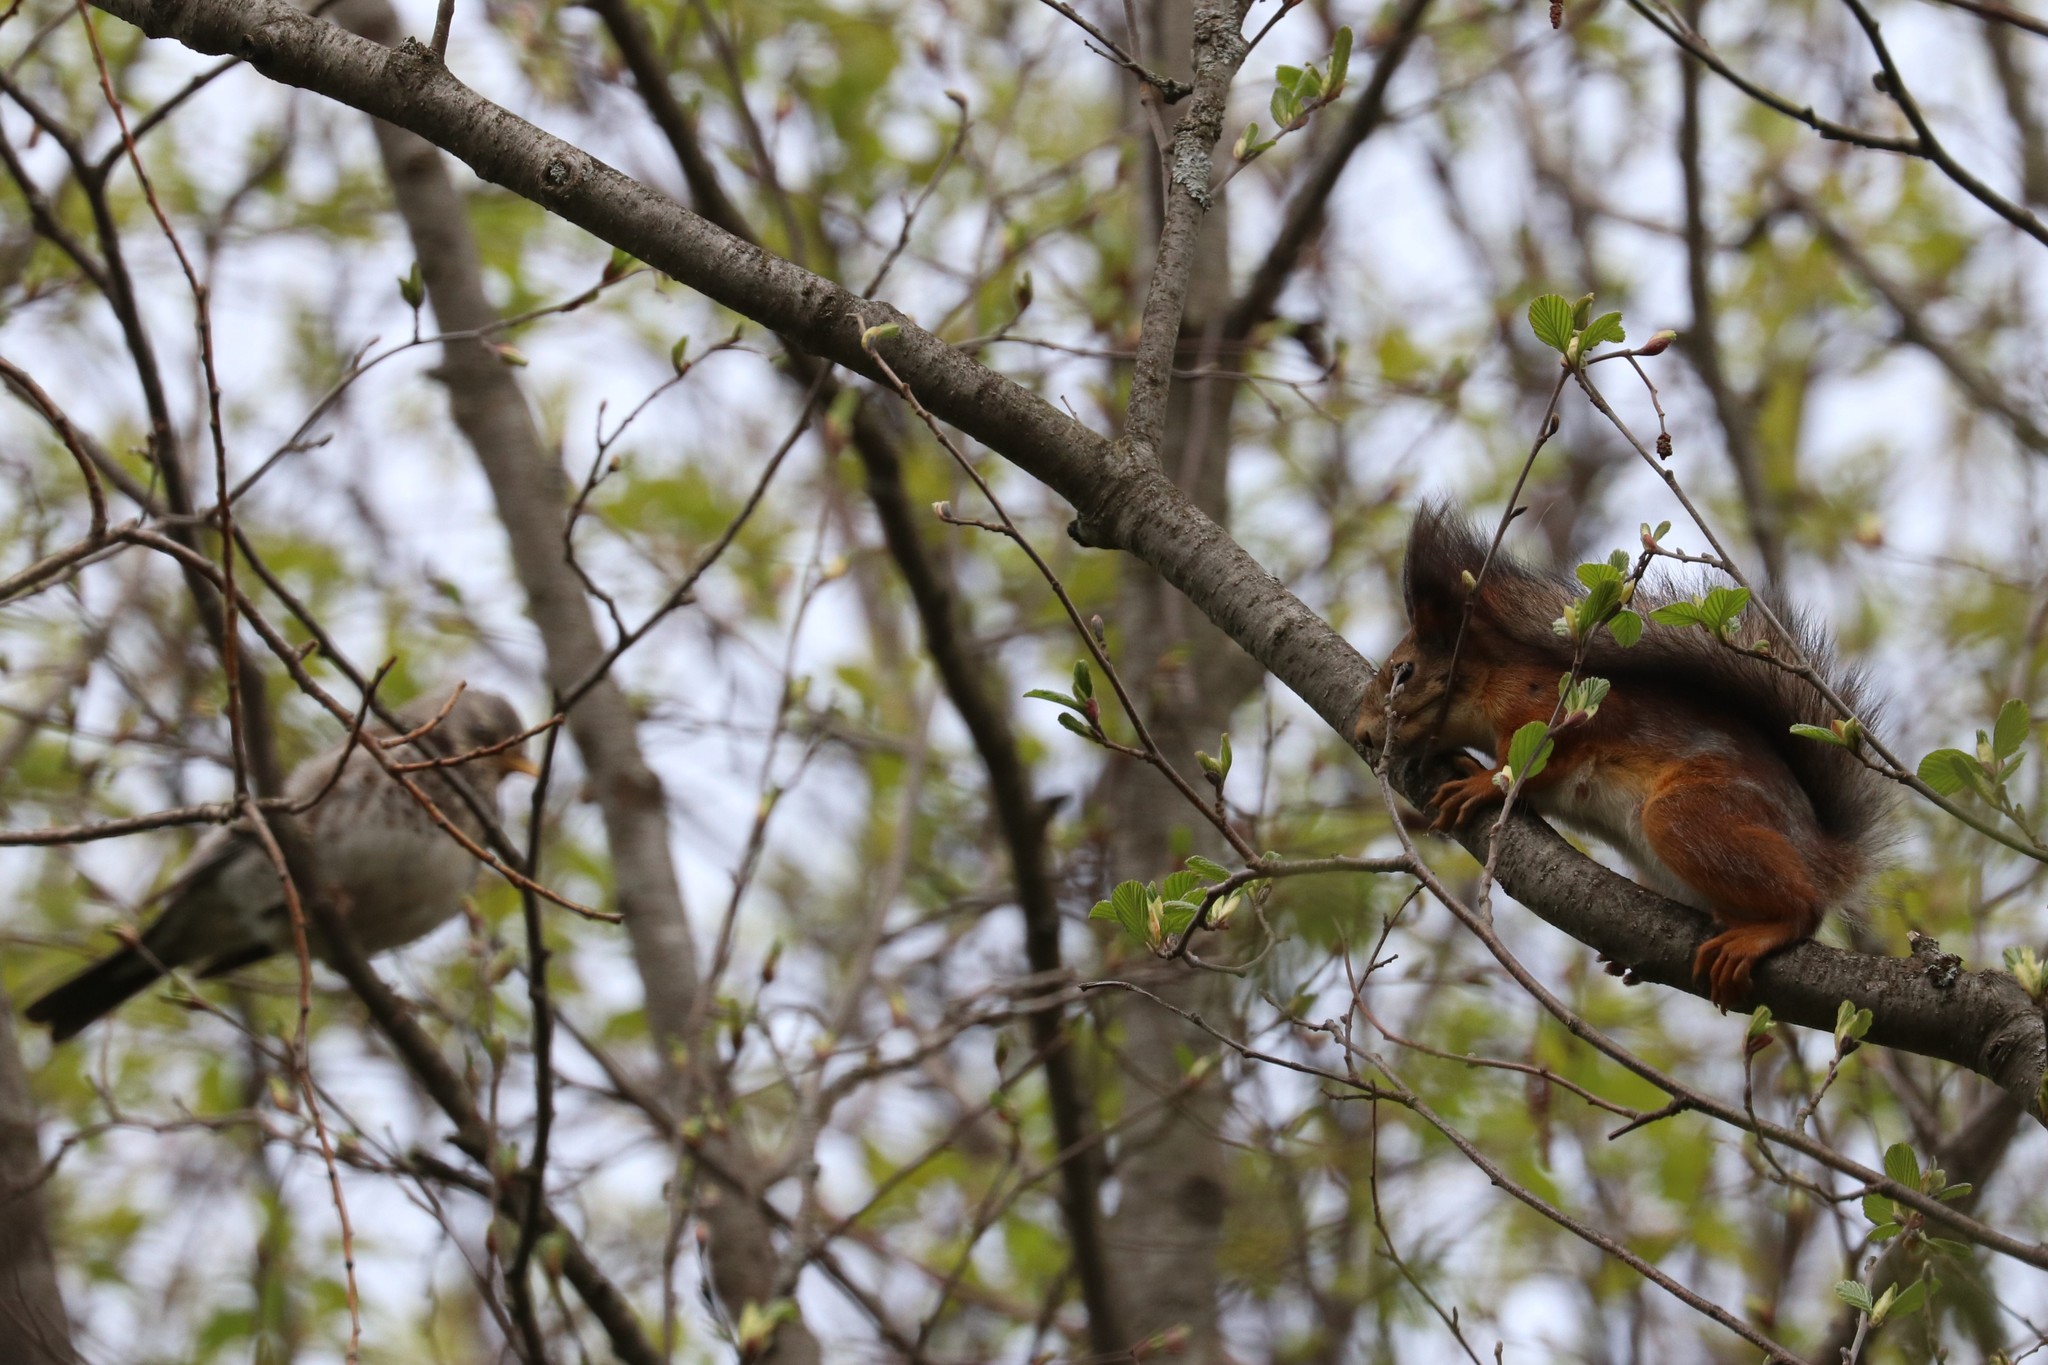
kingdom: Animalia
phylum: Chordata
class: Mammalia
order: Rodentia
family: Sciuridae
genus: Sciurus
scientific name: Sciurus vulgaris
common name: Eurasian red squirrel
